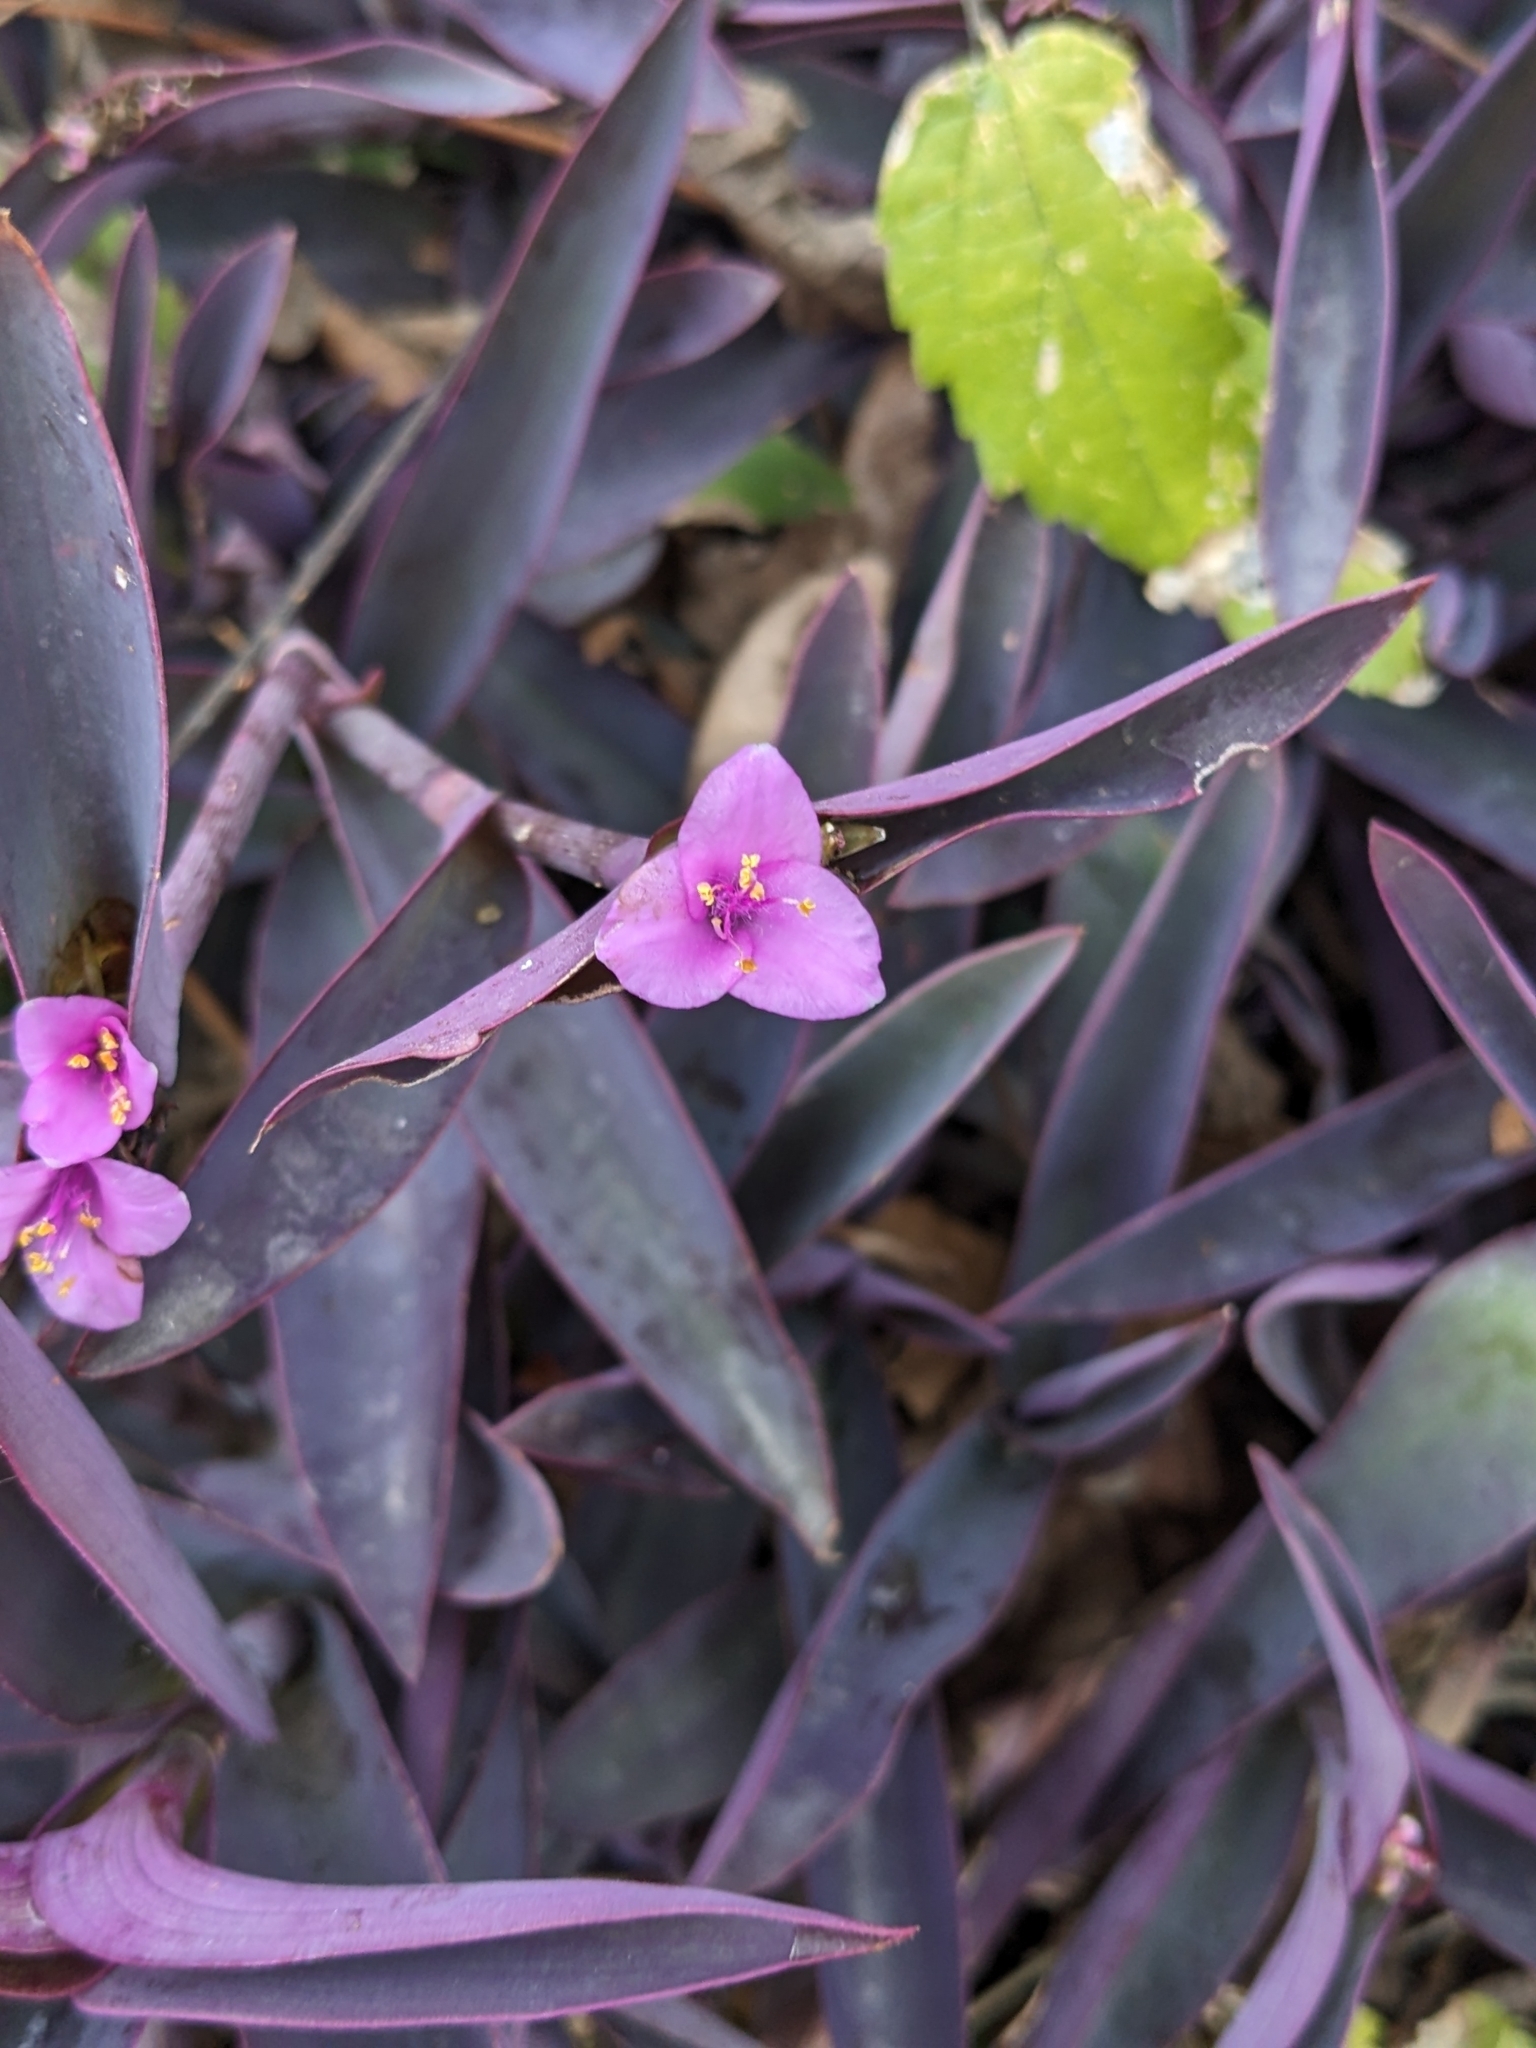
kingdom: Plantae
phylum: Tracheophyta
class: Liliopsida
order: Commelinales
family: Commelinaceae
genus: Tradescantia
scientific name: Tradescantia pallida
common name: Purpleheart
